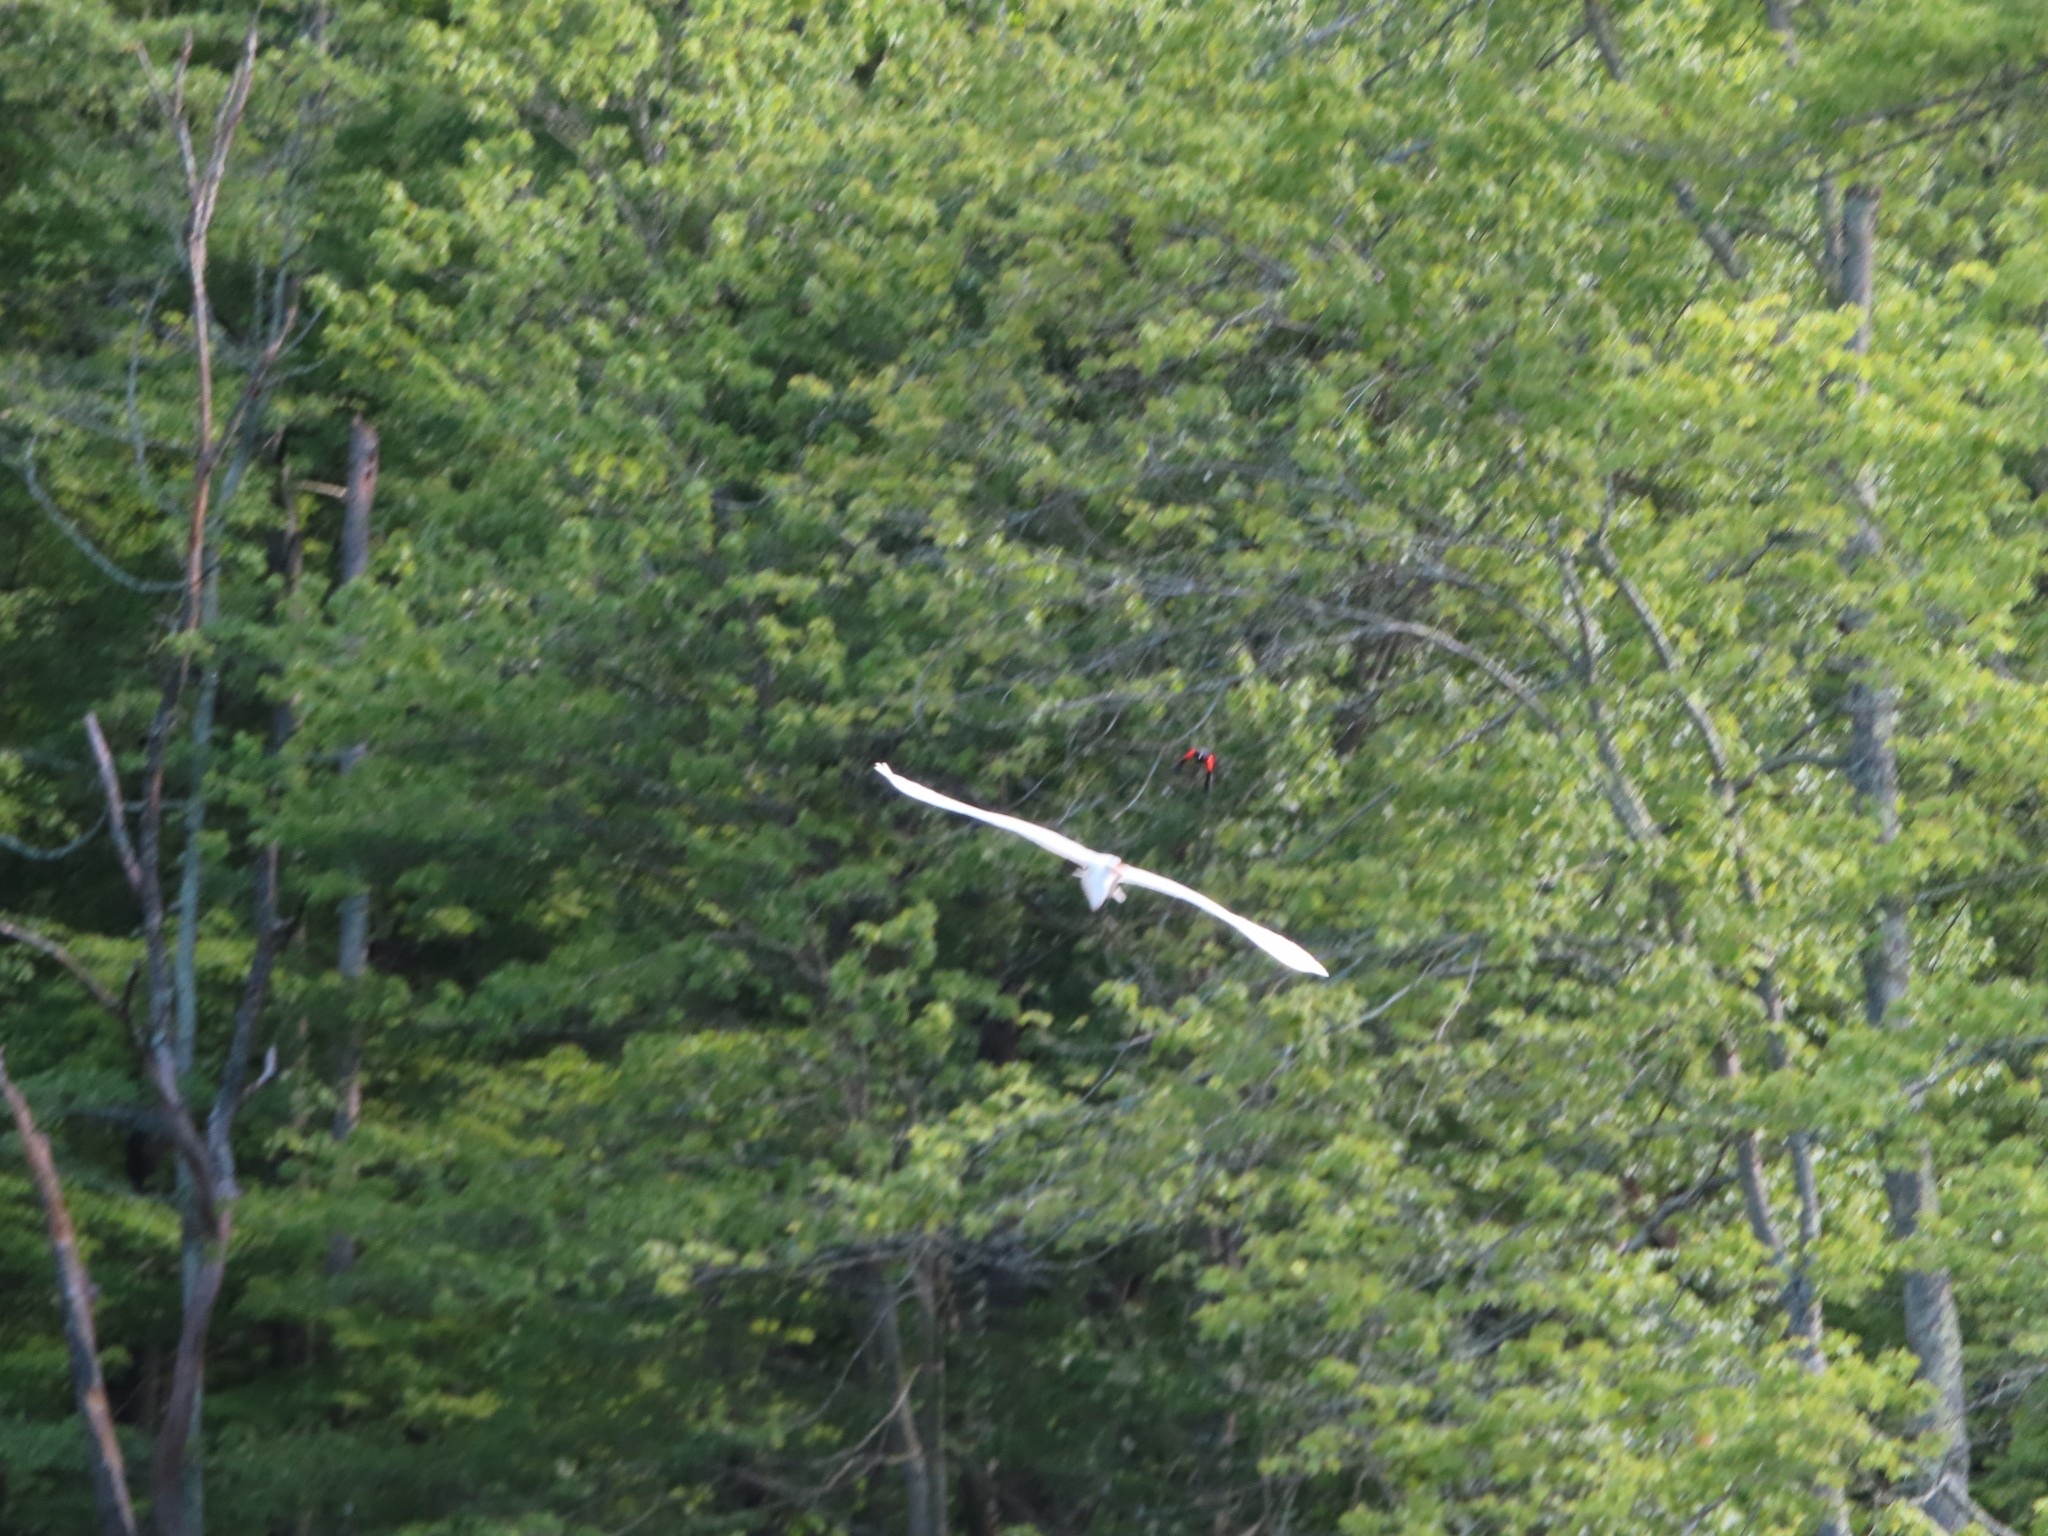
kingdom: Animalia
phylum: Chordata
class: Aves
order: Pelecaniformes
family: Ardeidae
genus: Ardea
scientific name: Ardea alba
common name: Great egret
